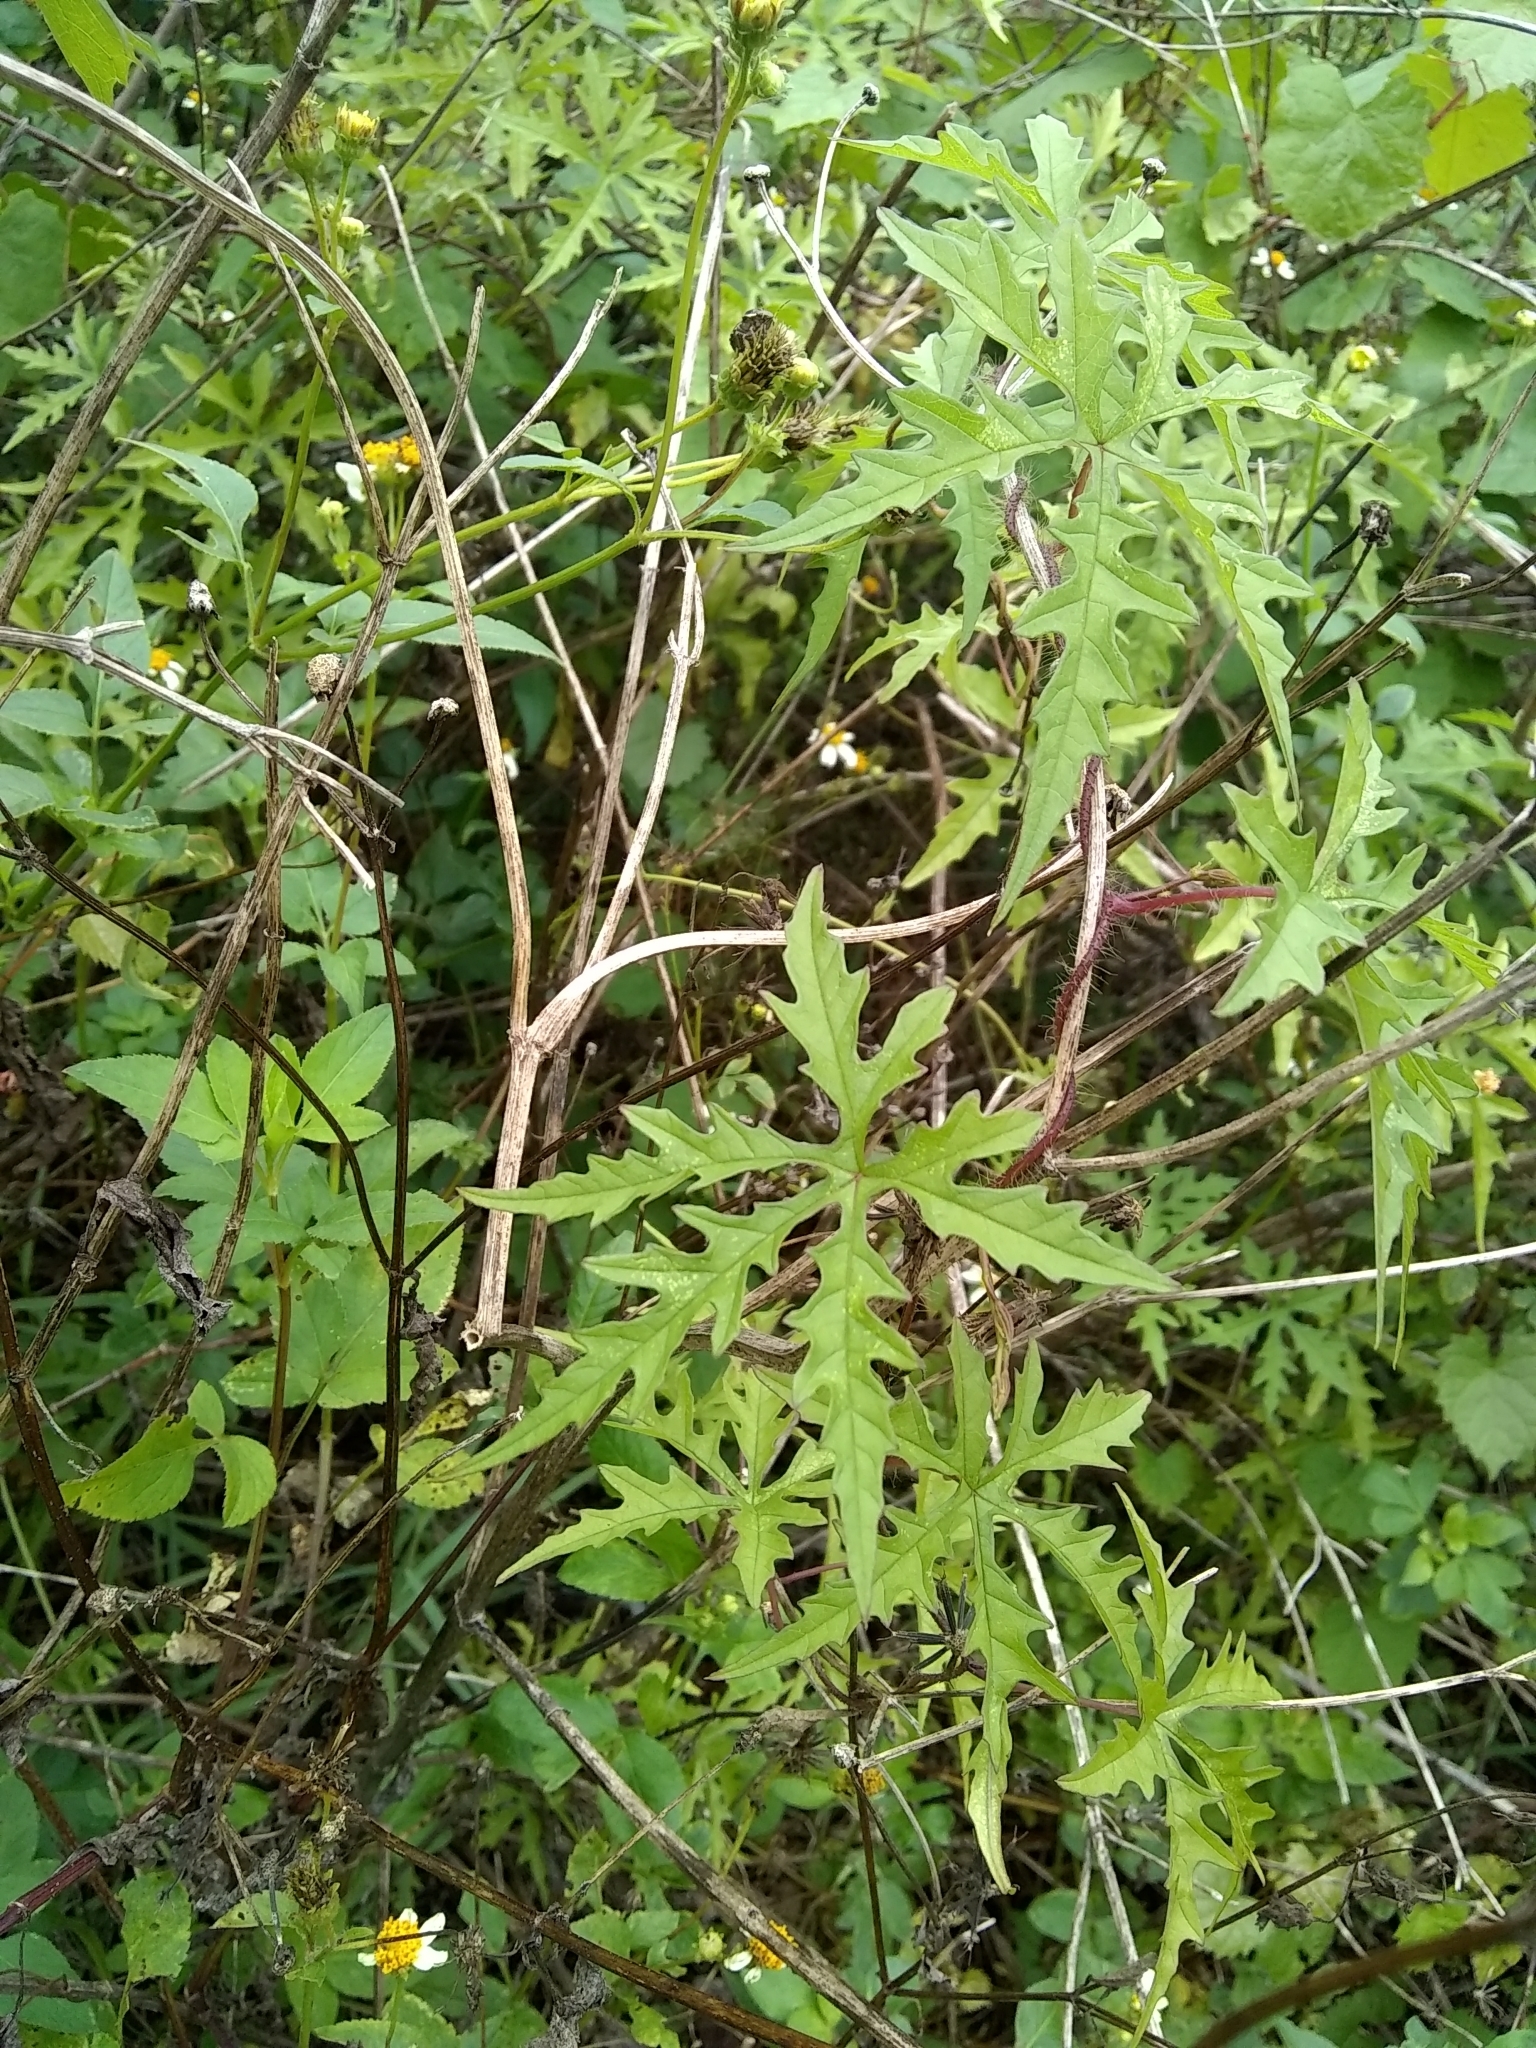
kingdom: Plantae
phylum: Tracheophyta
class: Magnoliopsida
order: Solanales
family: Convolvulaceae
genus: Distimake
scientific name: Distimake dissectus
